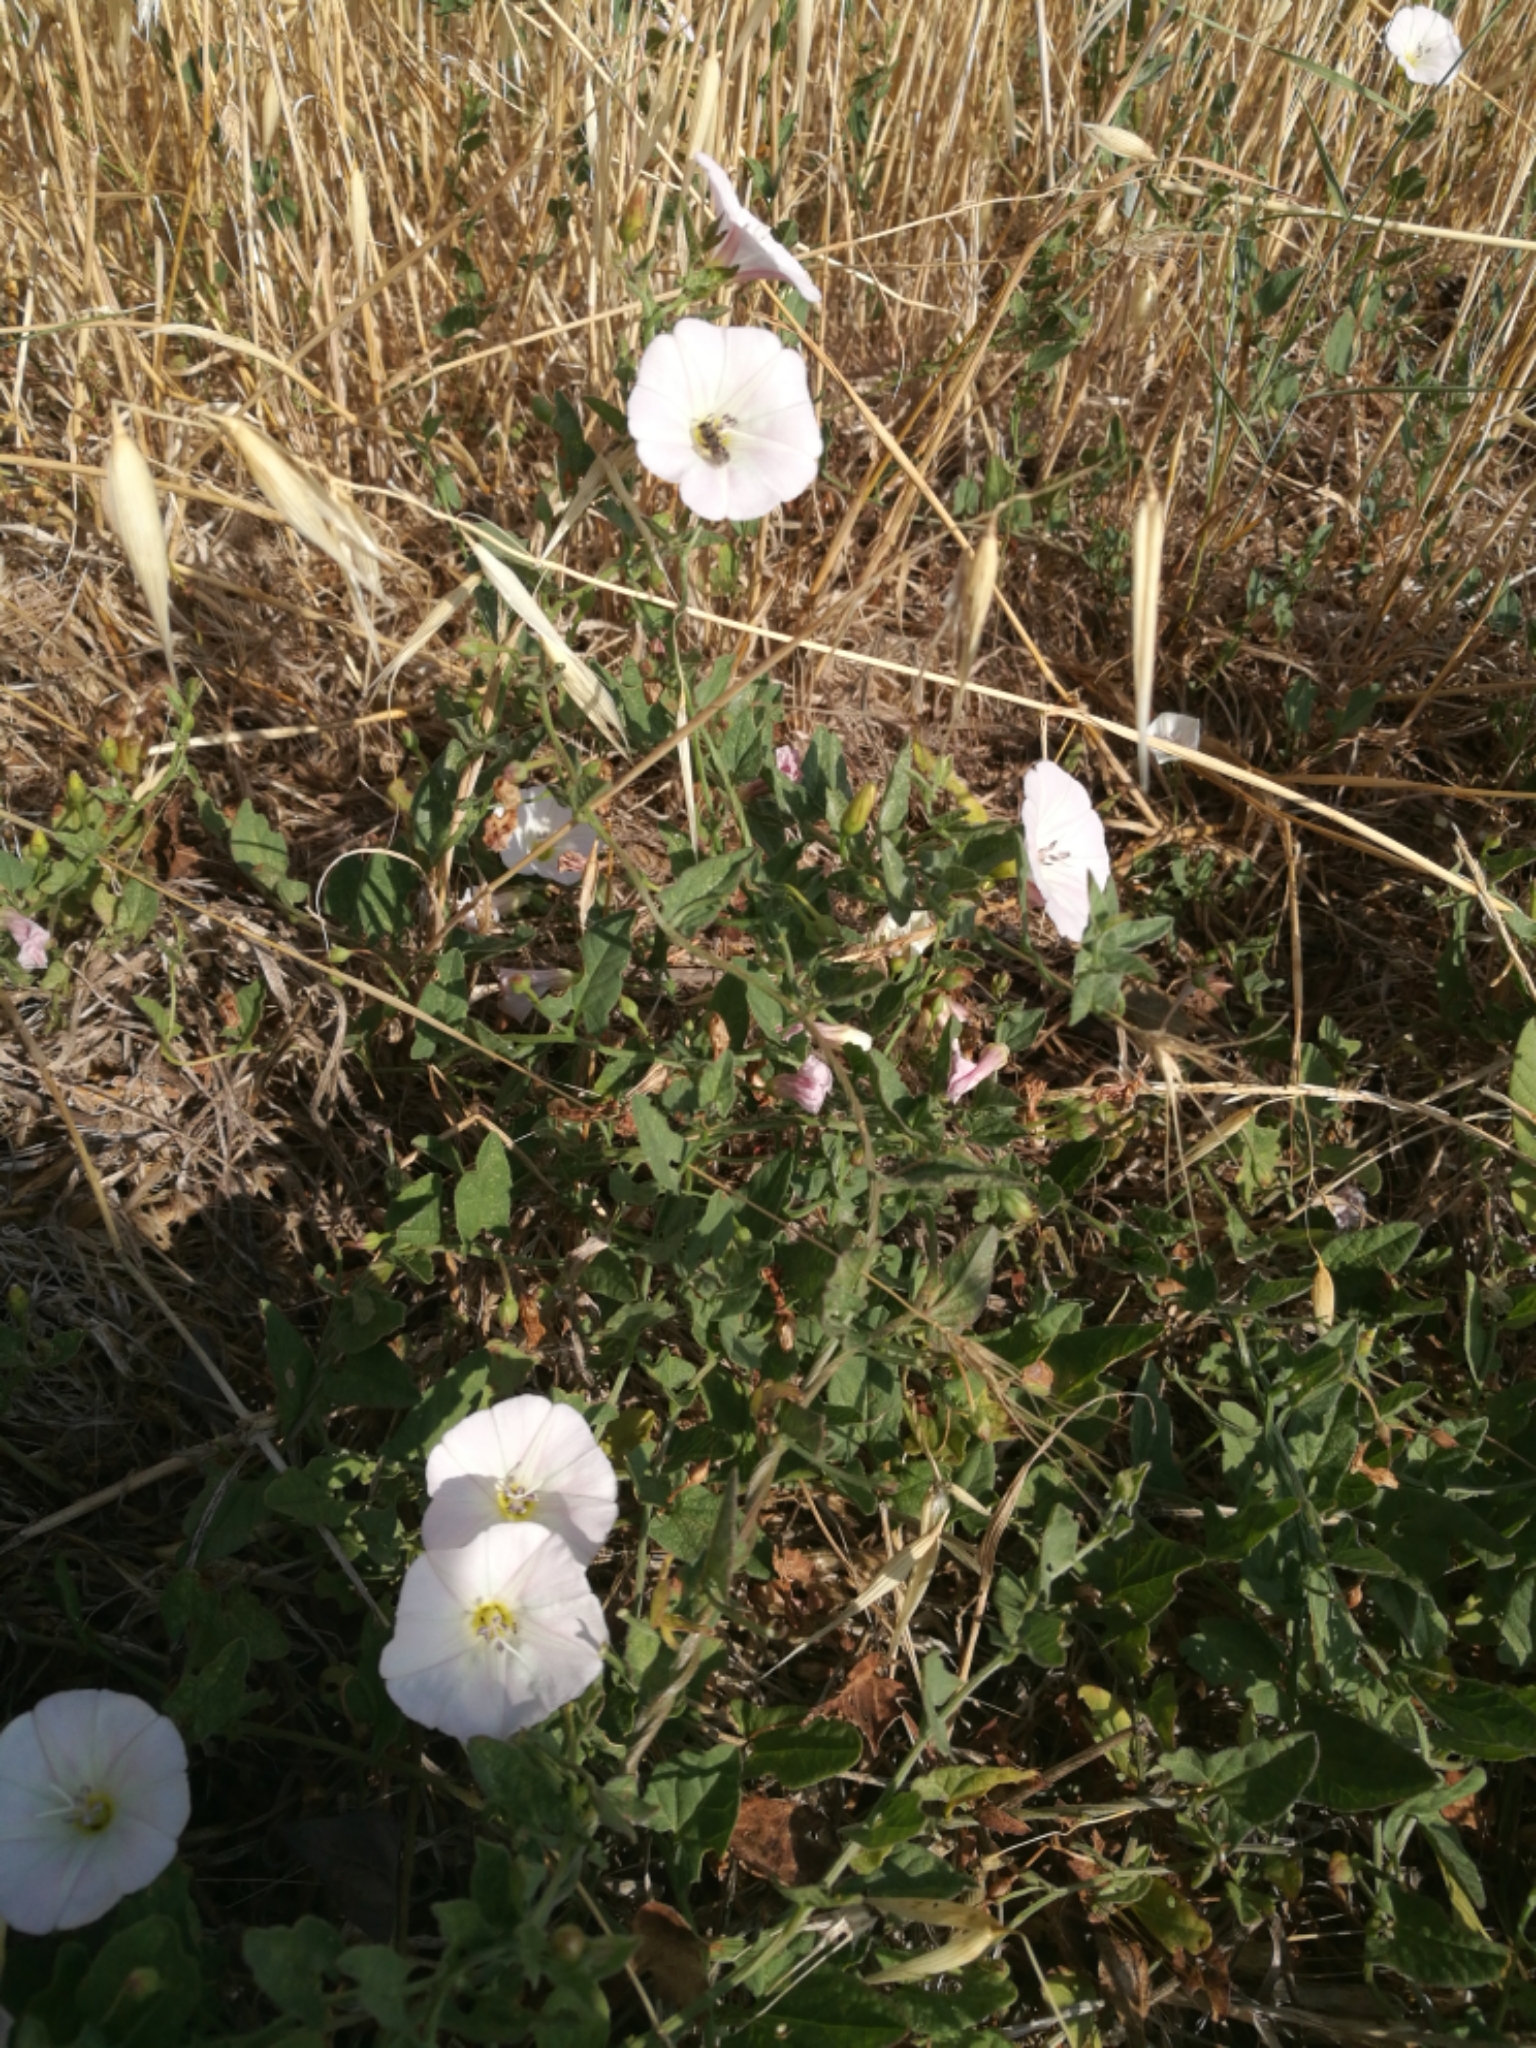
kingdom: Plantae
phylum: Tracheophyta
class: Magnoliopsida
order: Solanales
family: Convolvulaceae
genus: Convolvulus
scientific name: Convolvulus arvensis
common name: Field bindweed
